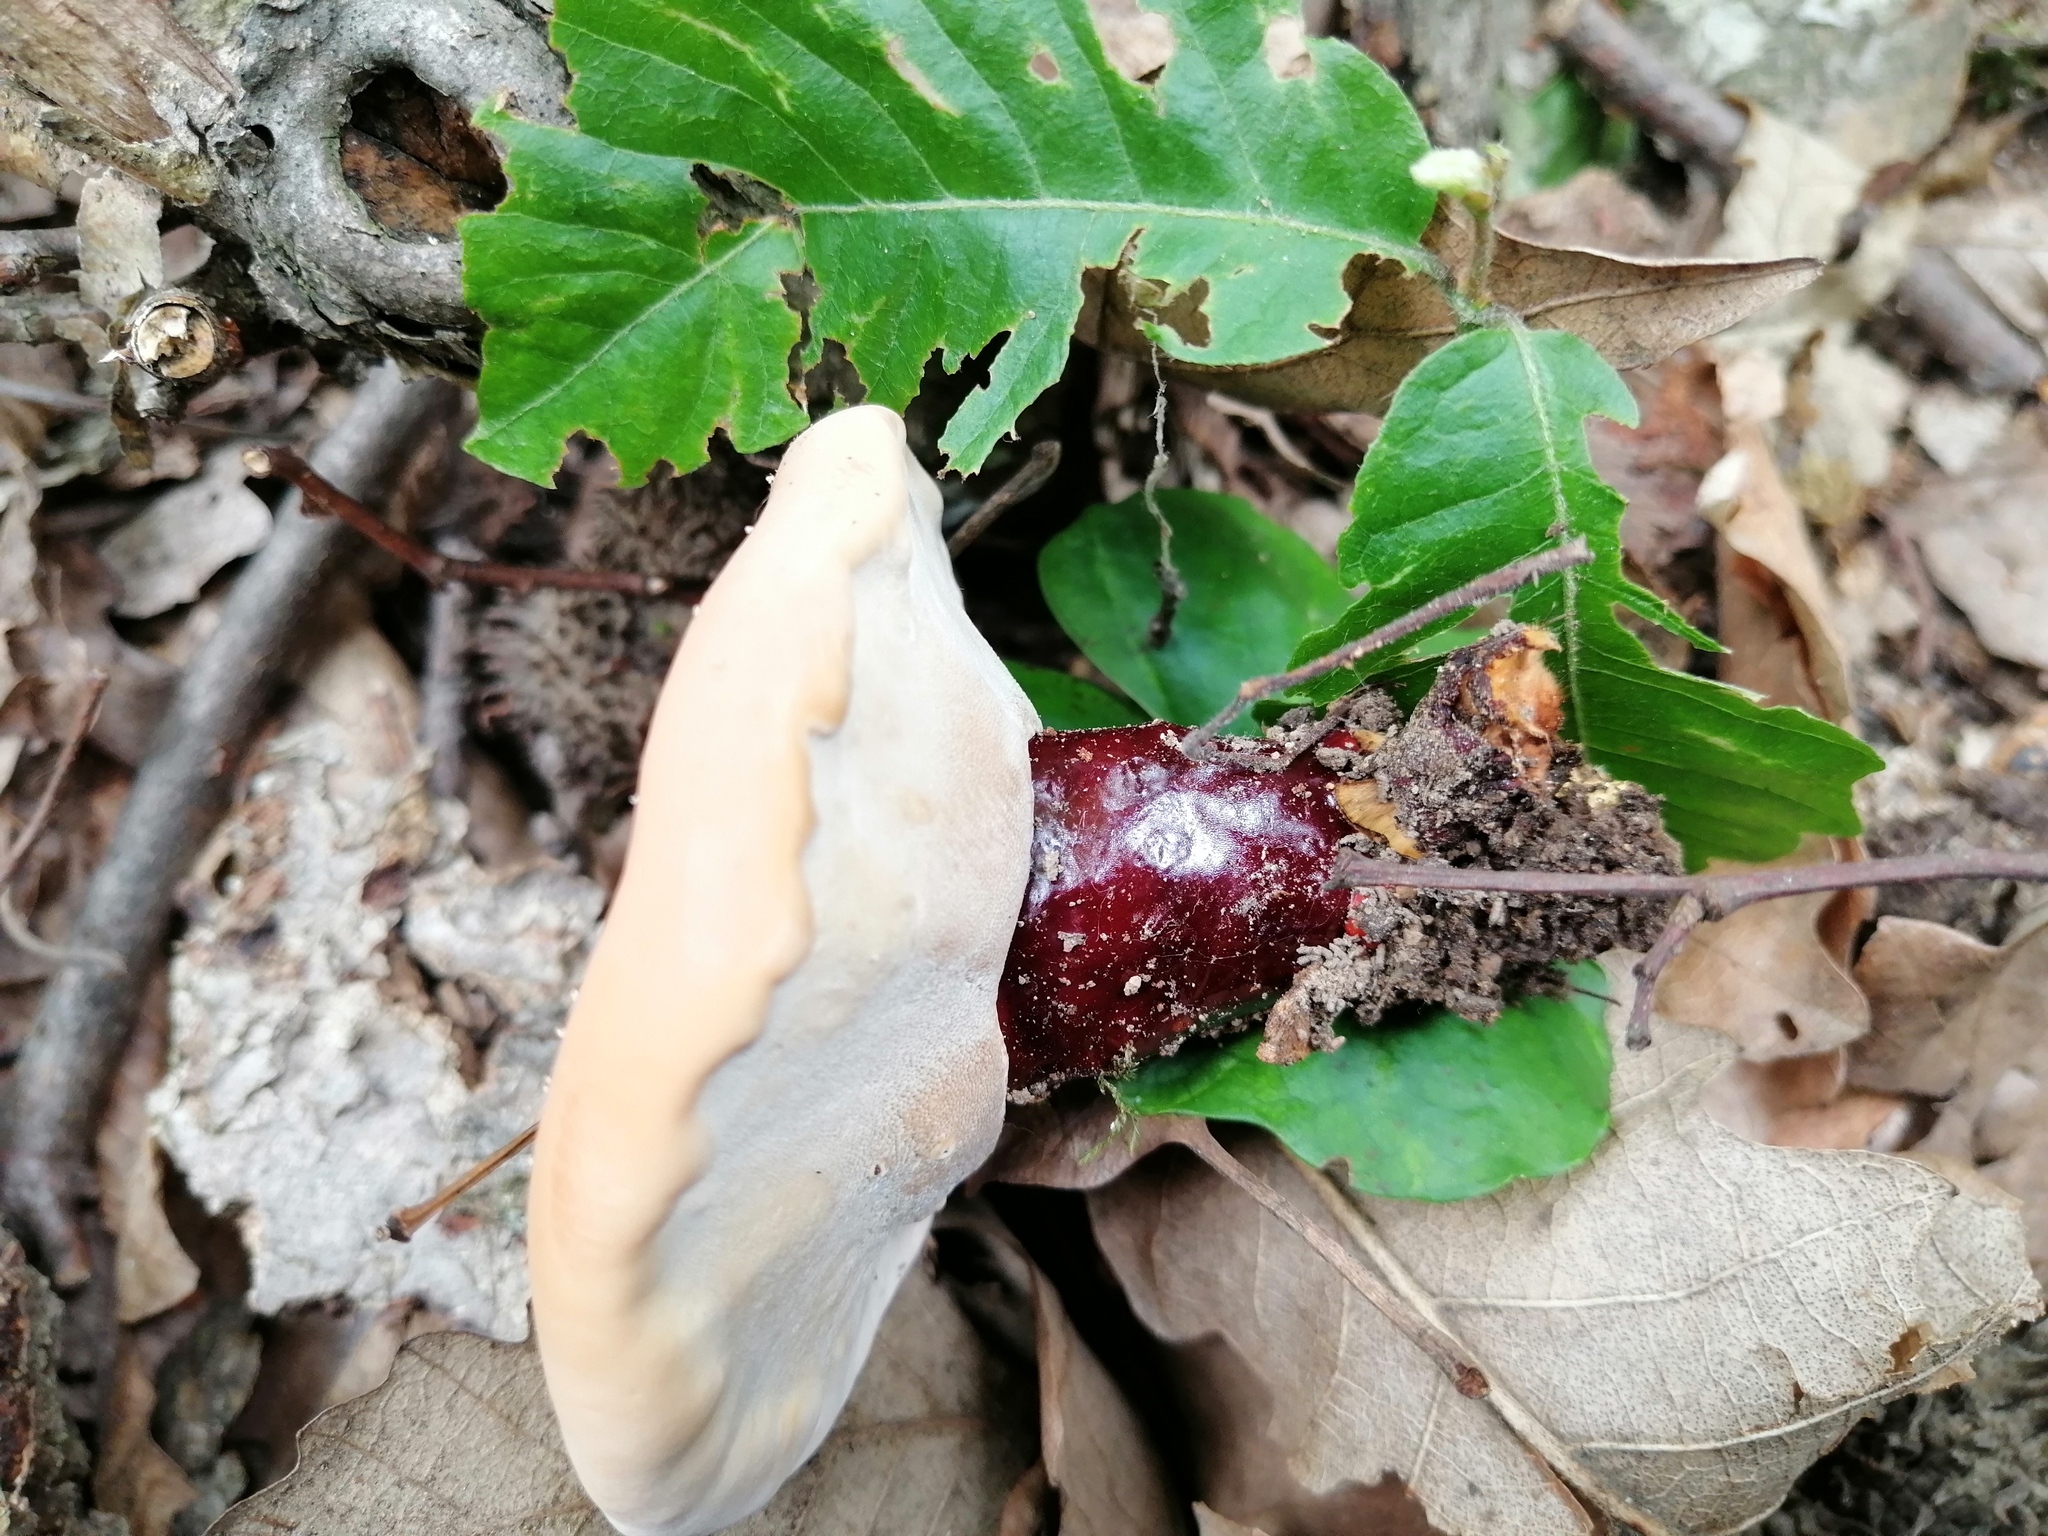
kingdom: Fungi
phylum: Basidiomycota
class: Agaricomycetes
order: Polyporales
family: Polyporaceae
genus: Ganoderma
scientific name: Ganoderma lucidum
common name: Lacquered bracket
